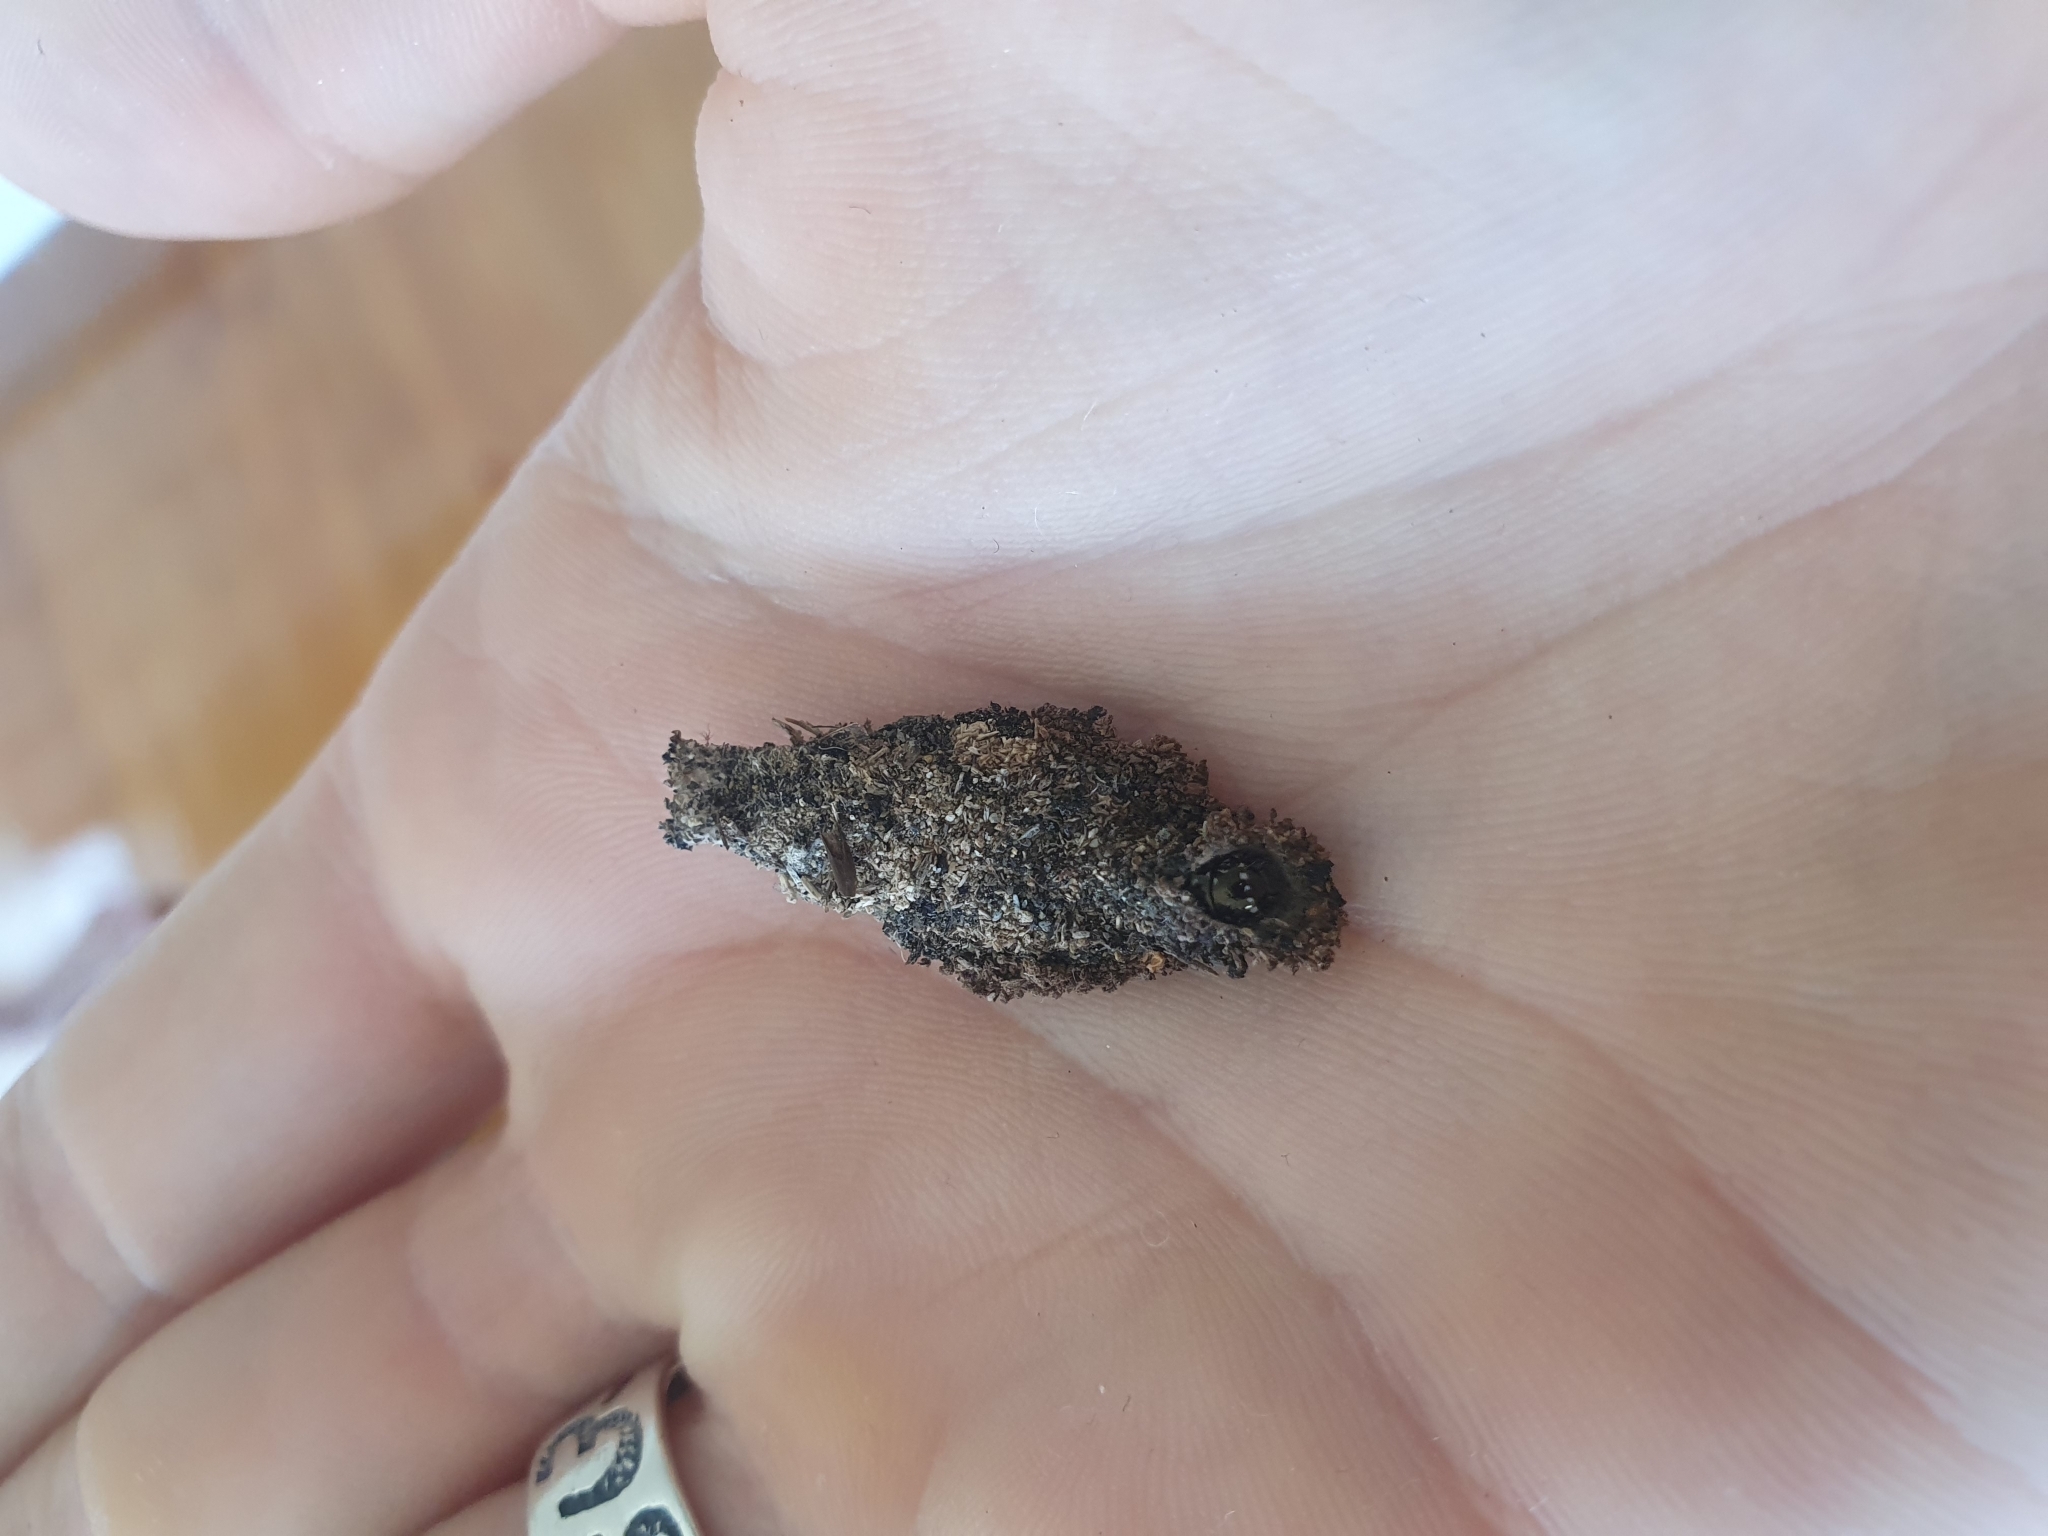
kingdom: Animalia
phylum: Arthropoda
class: Insecta
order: Lepidoptera
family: Psychidae
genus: Cebysa
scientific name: Cebysa leucotelus
